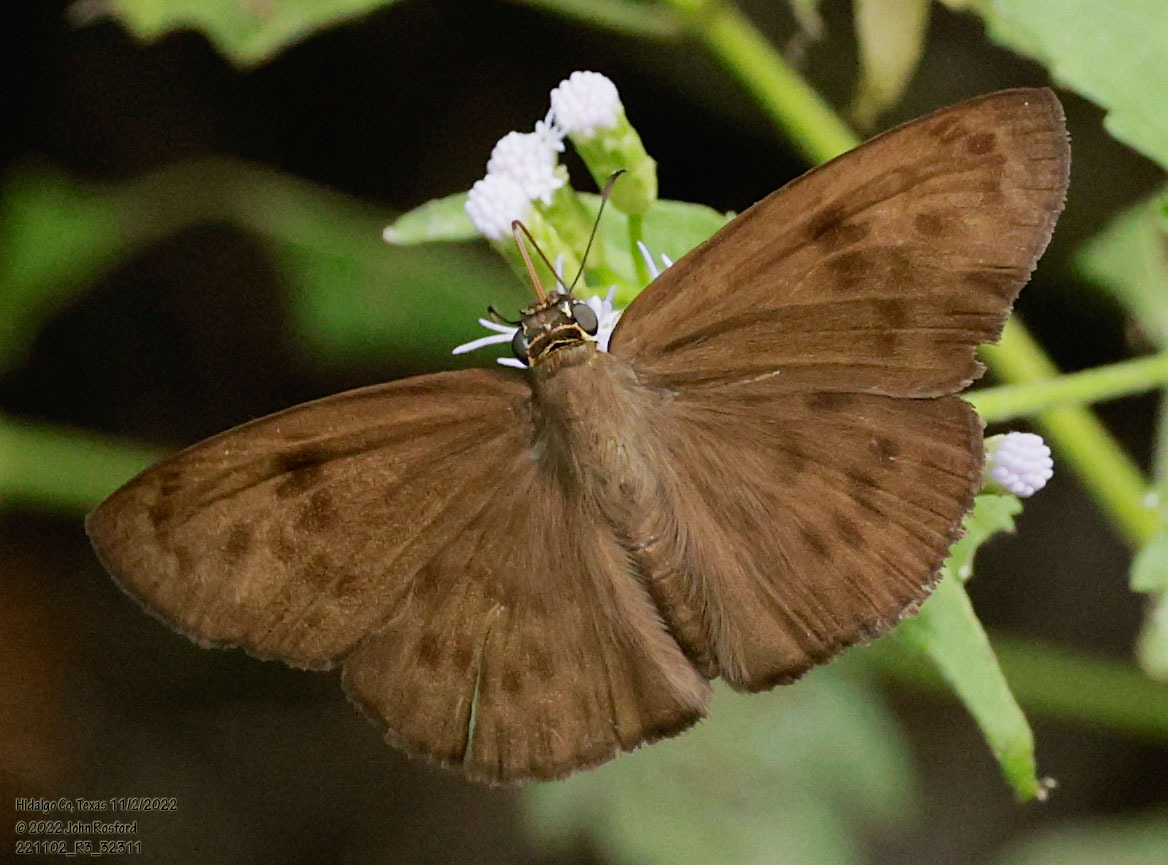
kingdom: Animalia
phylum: Arthropoda
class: Insecta
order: Lepidoptera
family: Hesperiidae
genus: Grais
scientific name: Grais stigmaticus
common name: Hermit skipper
